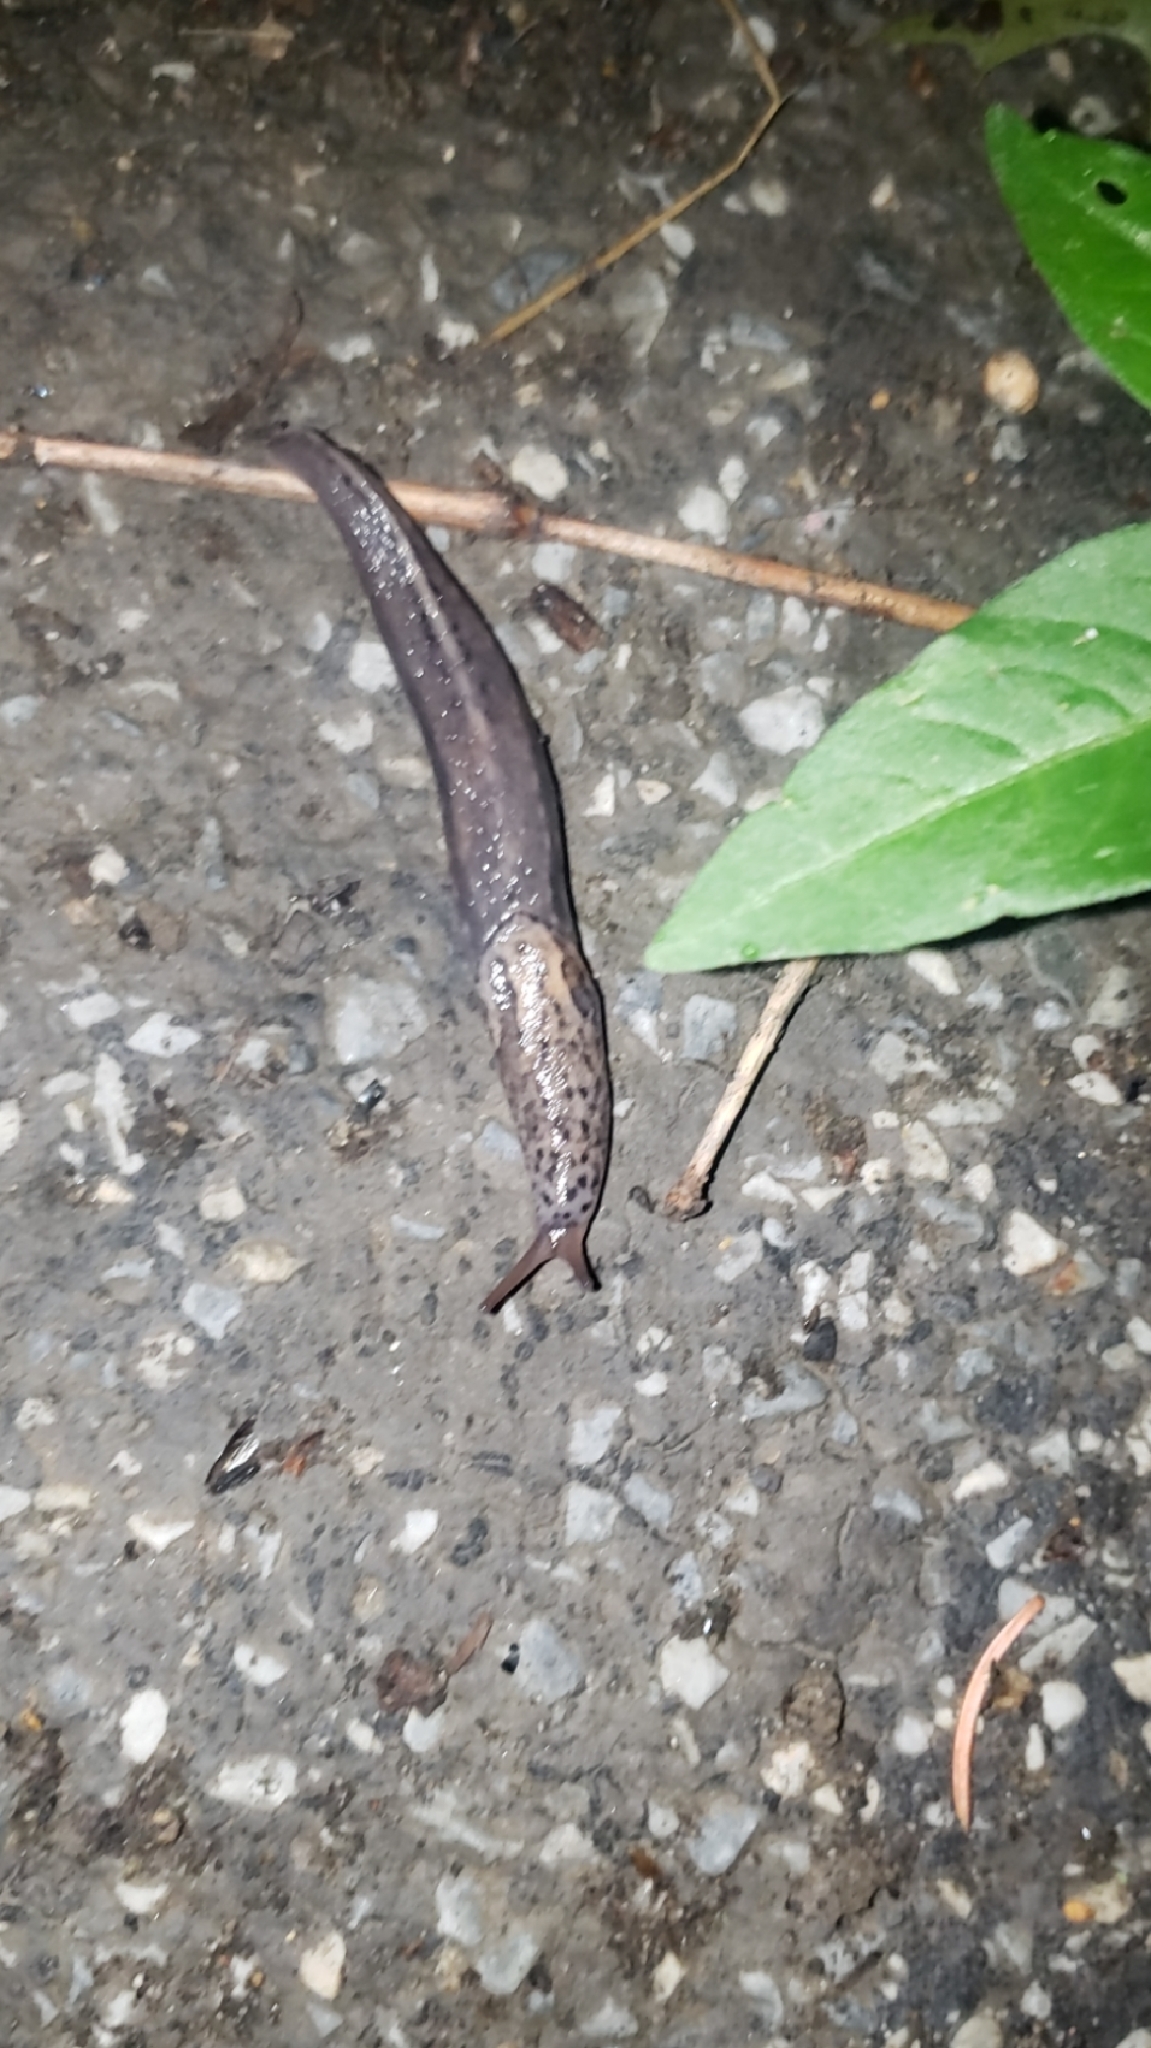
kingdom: Animalia
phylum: Mollusca
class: Gastropoda
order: Stylommatophora
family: Limacidae
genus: Limax
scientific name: Limax maximus
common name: Great grey slug
